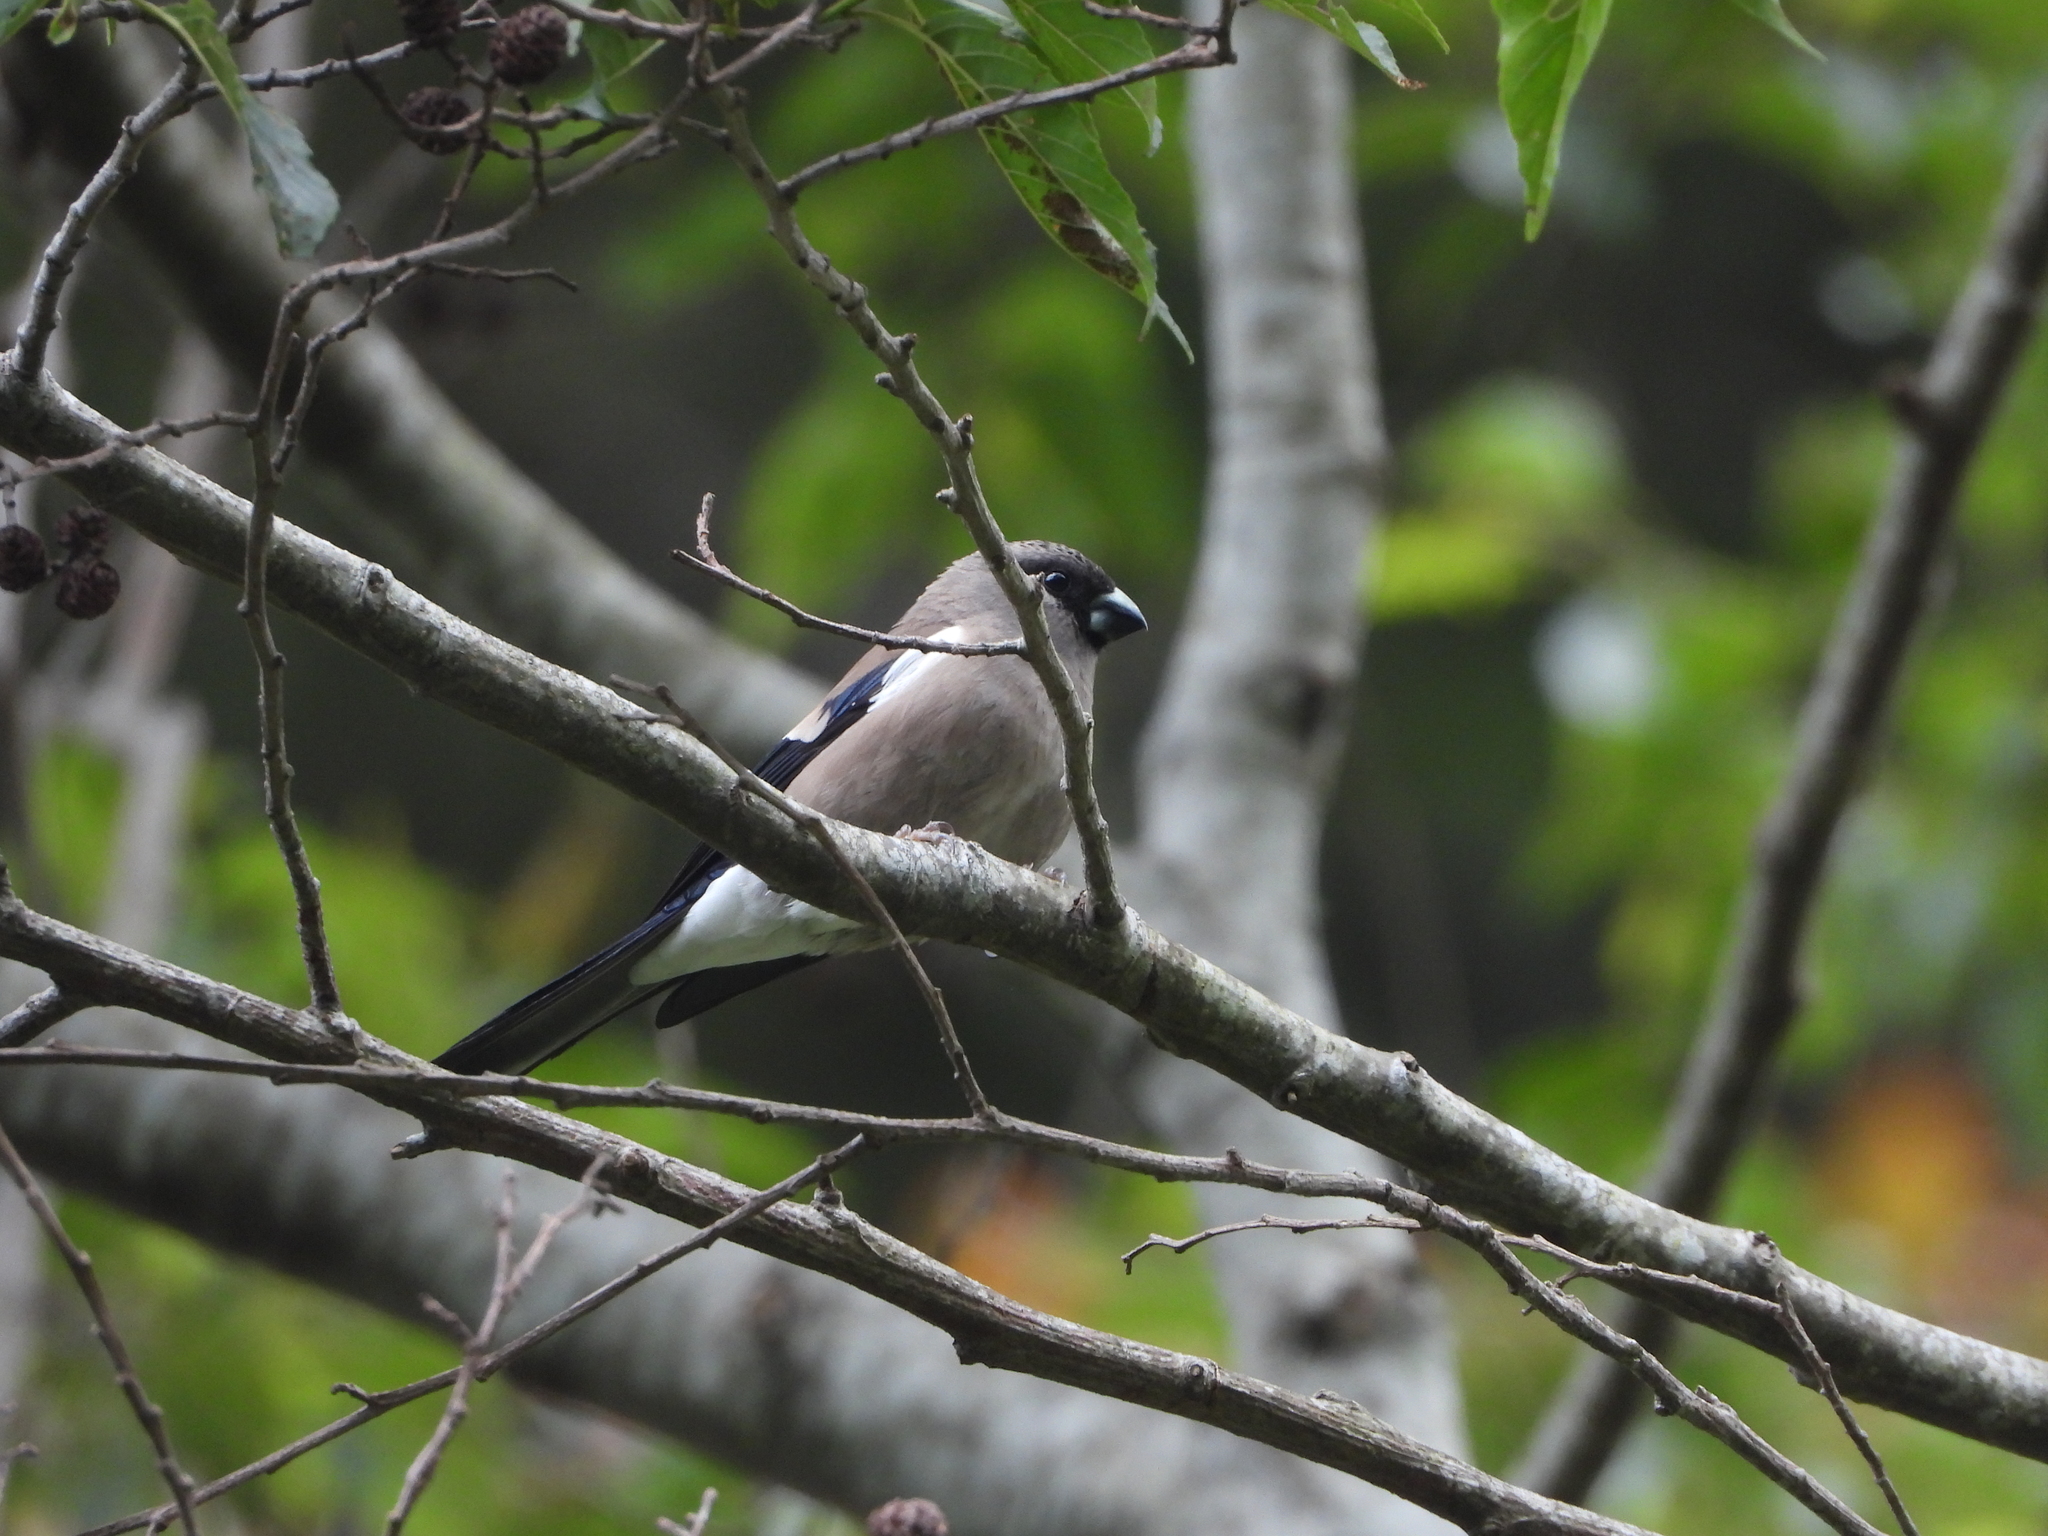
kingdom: Animalia
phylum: Chordata
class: Aves
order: Passeriformes
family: Fringillidae
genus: Pyrrhula
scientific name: Pyrrhula nipalensis
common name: Brown bullfinch
